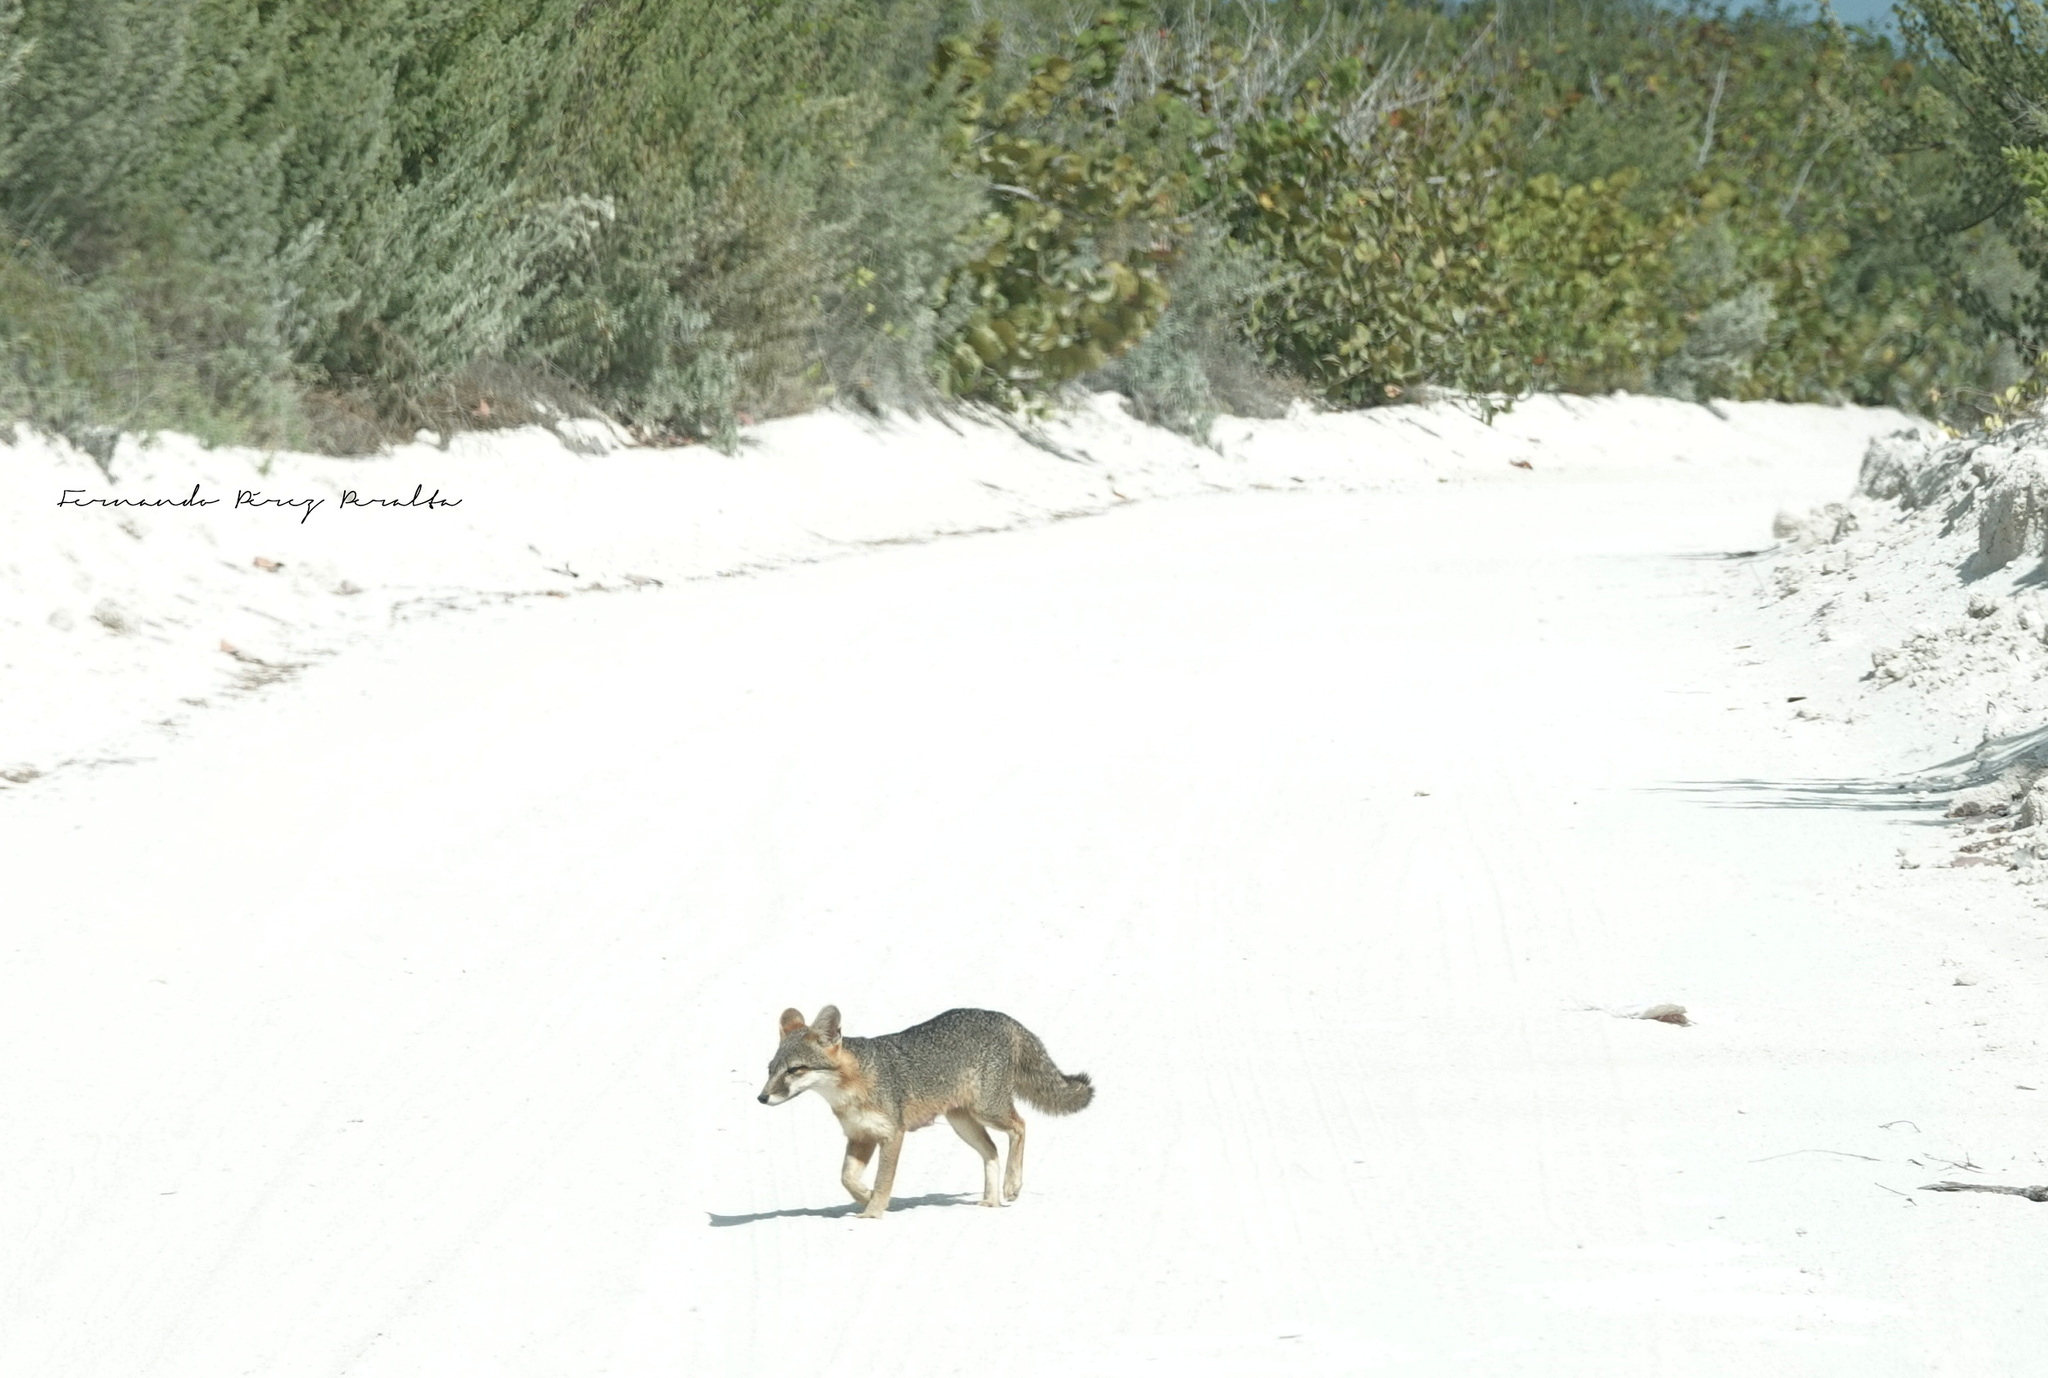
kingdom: Animalia
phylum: Chordata
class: Mammalia
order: Carnivora
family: Canidae
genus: Urocyon
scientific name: Urocyon cinereoargenteus
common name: Gray fox
